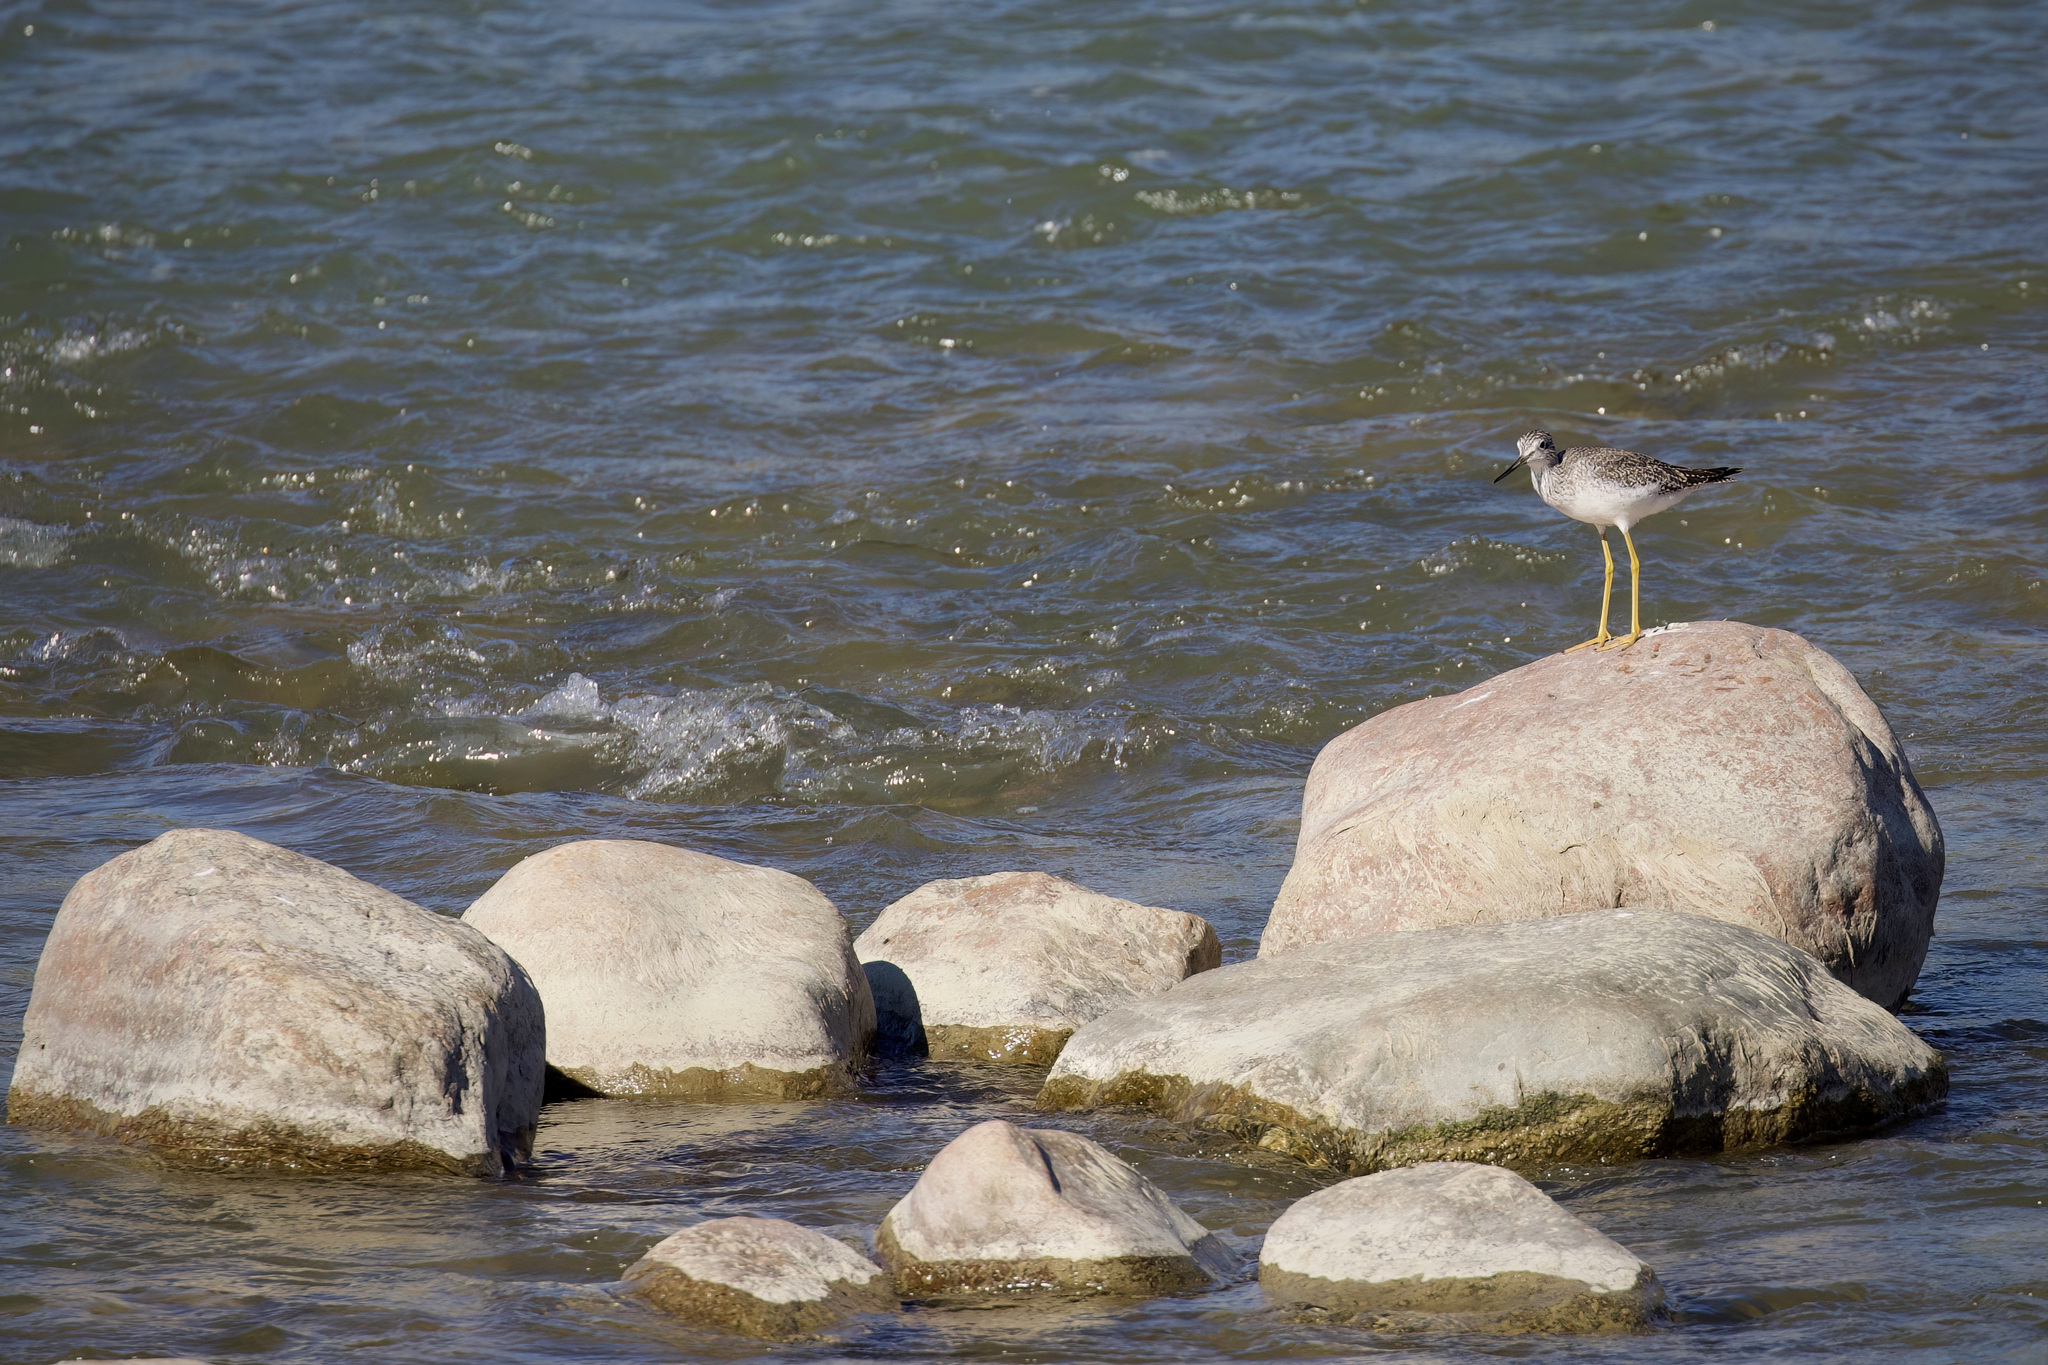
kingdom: Animalia
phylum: Chordata
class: Aves
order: Charadriiformes
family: Scolopacidae
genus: Tringa
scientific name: Tringa melanoleuca
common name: Greater yellowlegs
